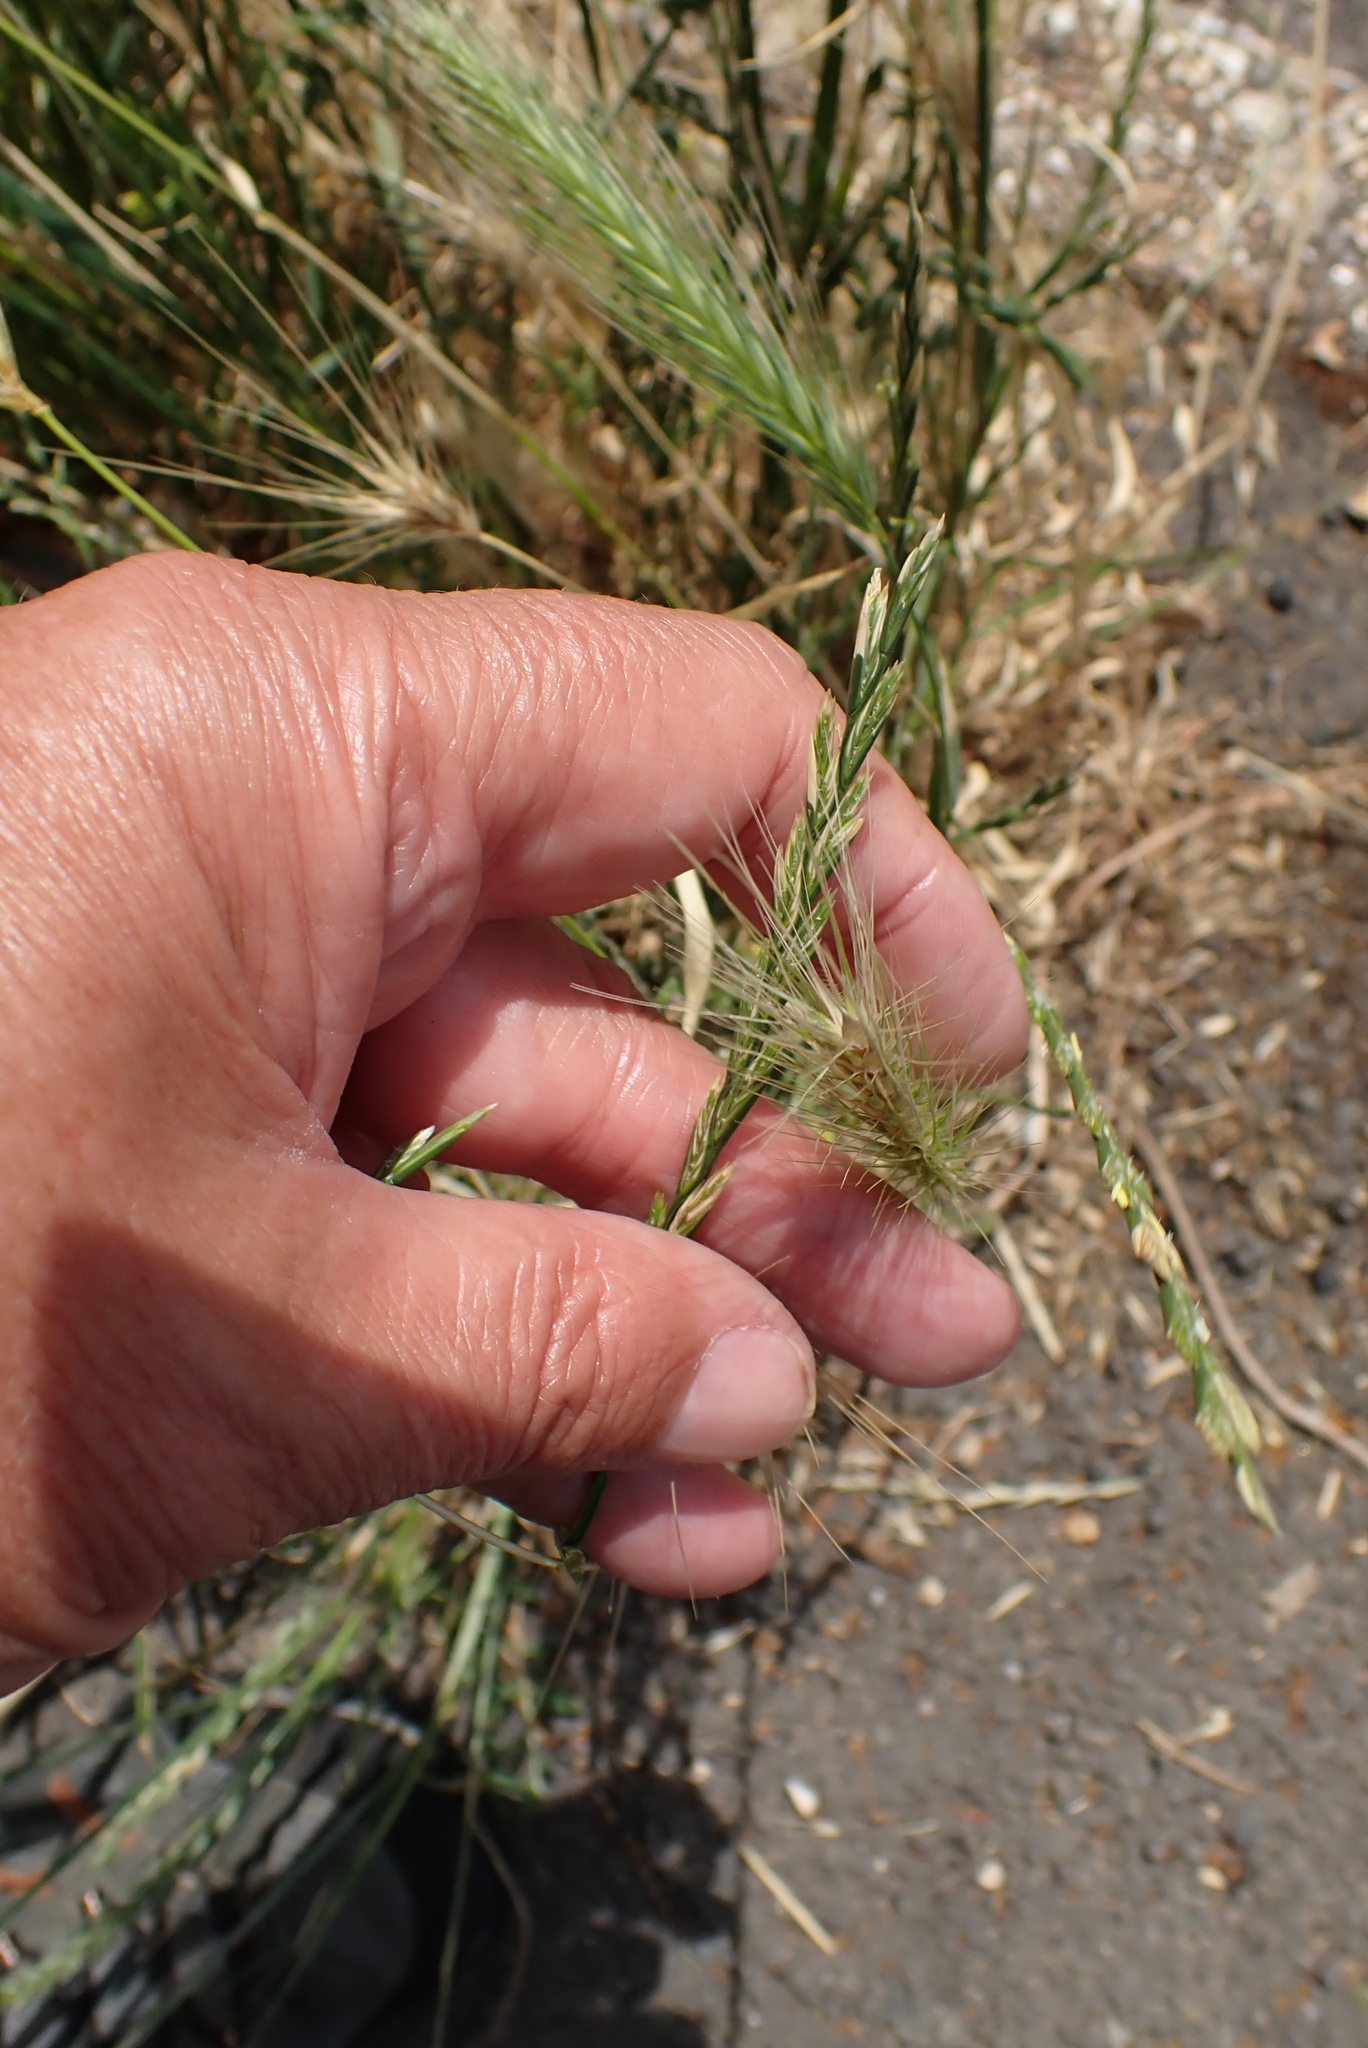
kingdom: Plantae
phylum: Tracheophyta
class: Liliopsida
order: Poales
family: Poaceae
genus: Lolium
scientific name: Lolium perenne
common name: Perennial ryegrass
